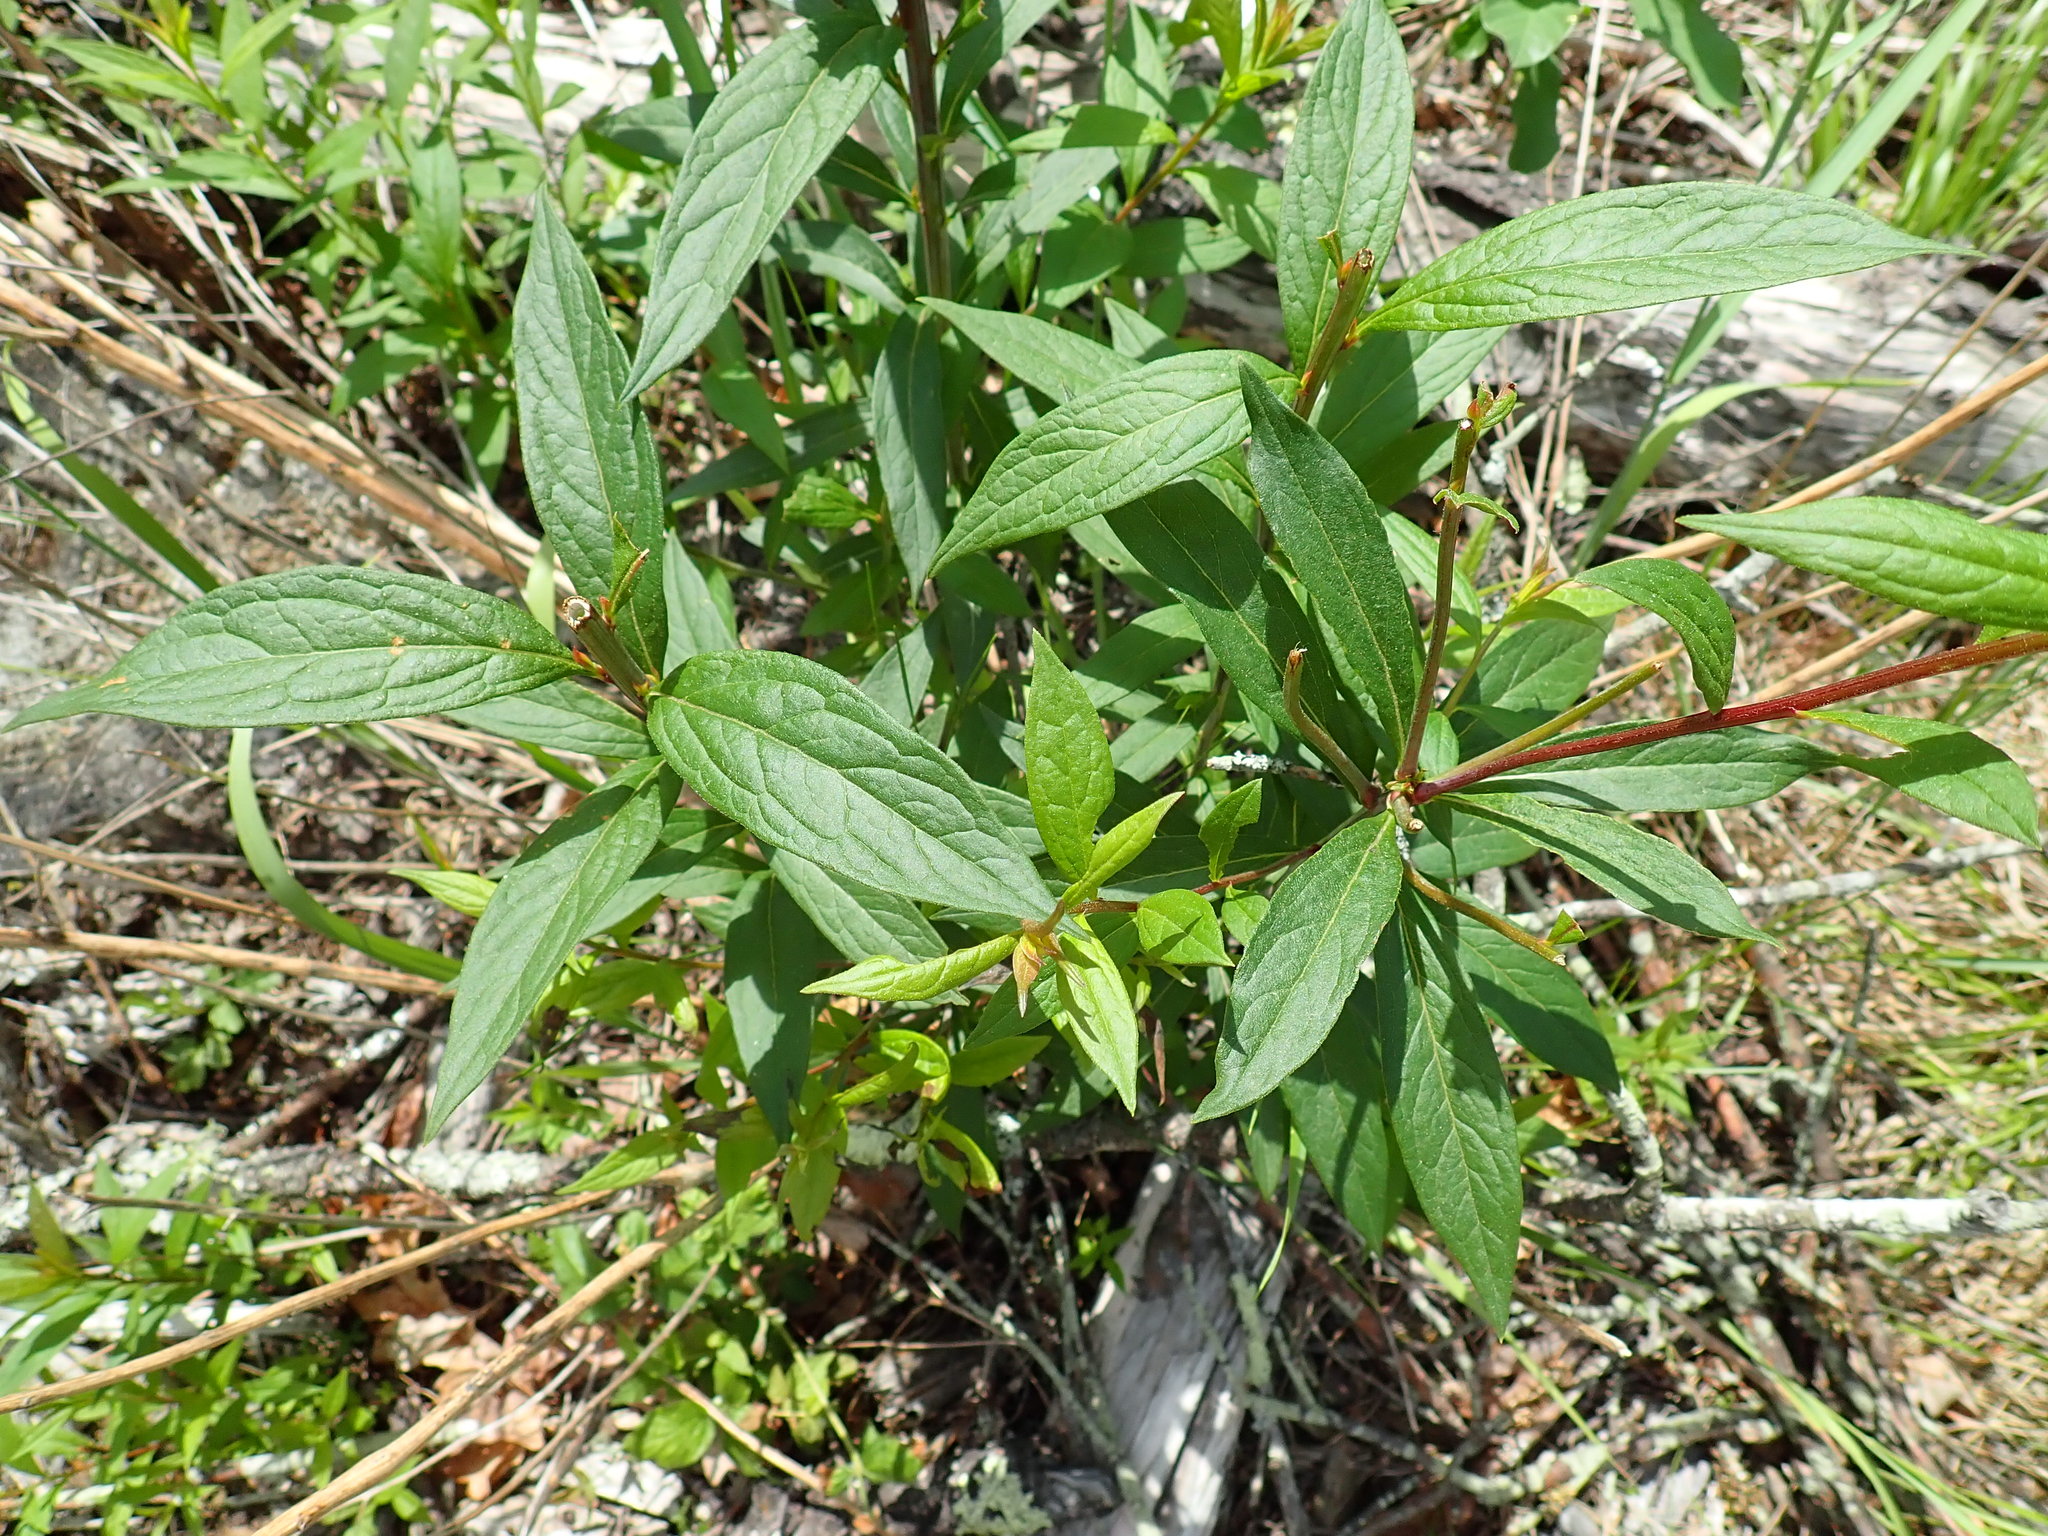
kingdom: Plantae
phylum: Tracheophyta
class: Magnoliopsida
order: Asterales
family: Asteraceae
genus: Doellingeria
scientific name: Doellingeria umbellata
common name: Flat-top white aster
